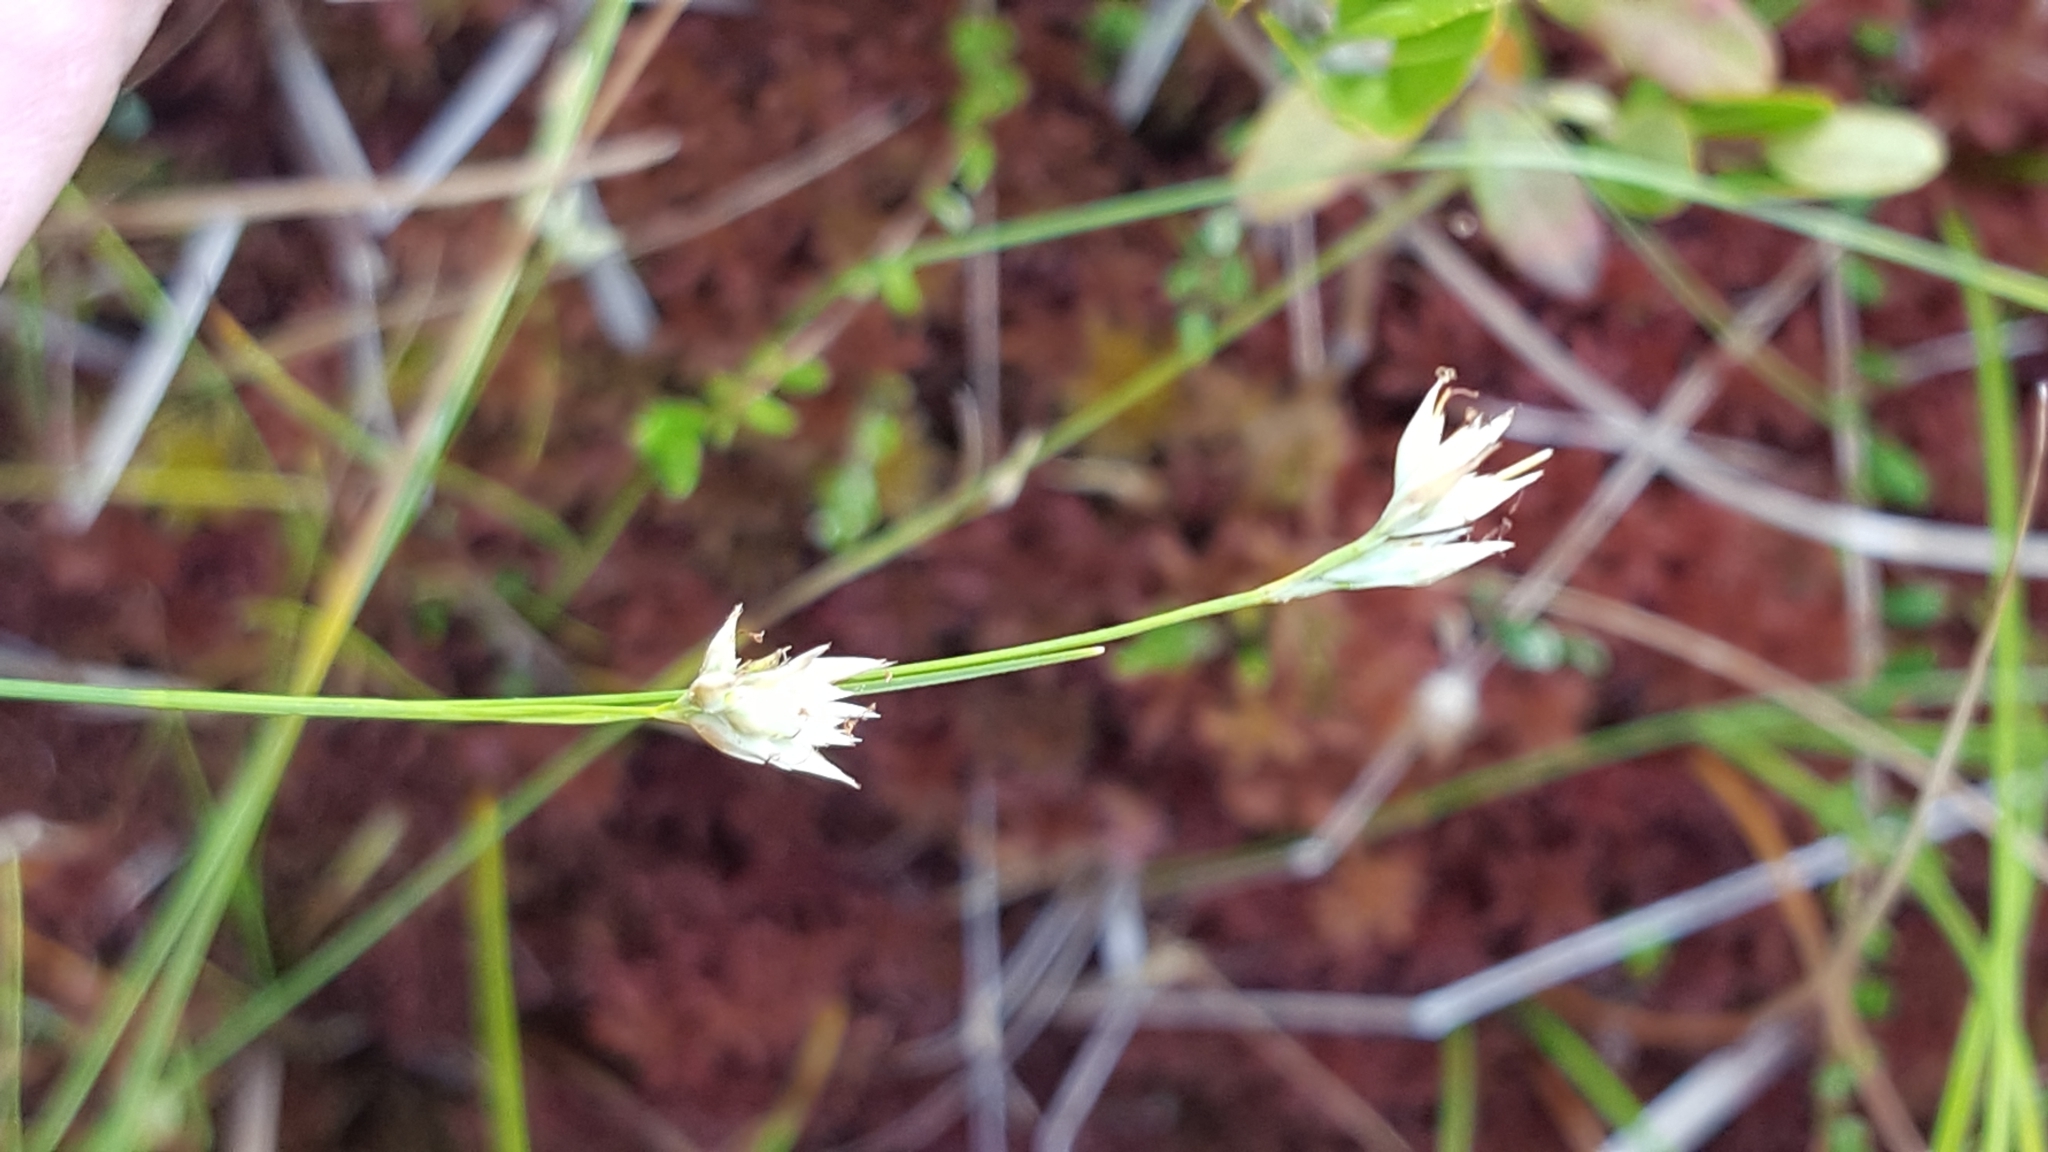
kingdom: Plantae
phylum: Tracheophyta
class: Liliopsida
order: Poales
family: Cyperaceae
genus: Rhynchospora
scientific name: Rhynchospora alba
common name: White beak-sedge
